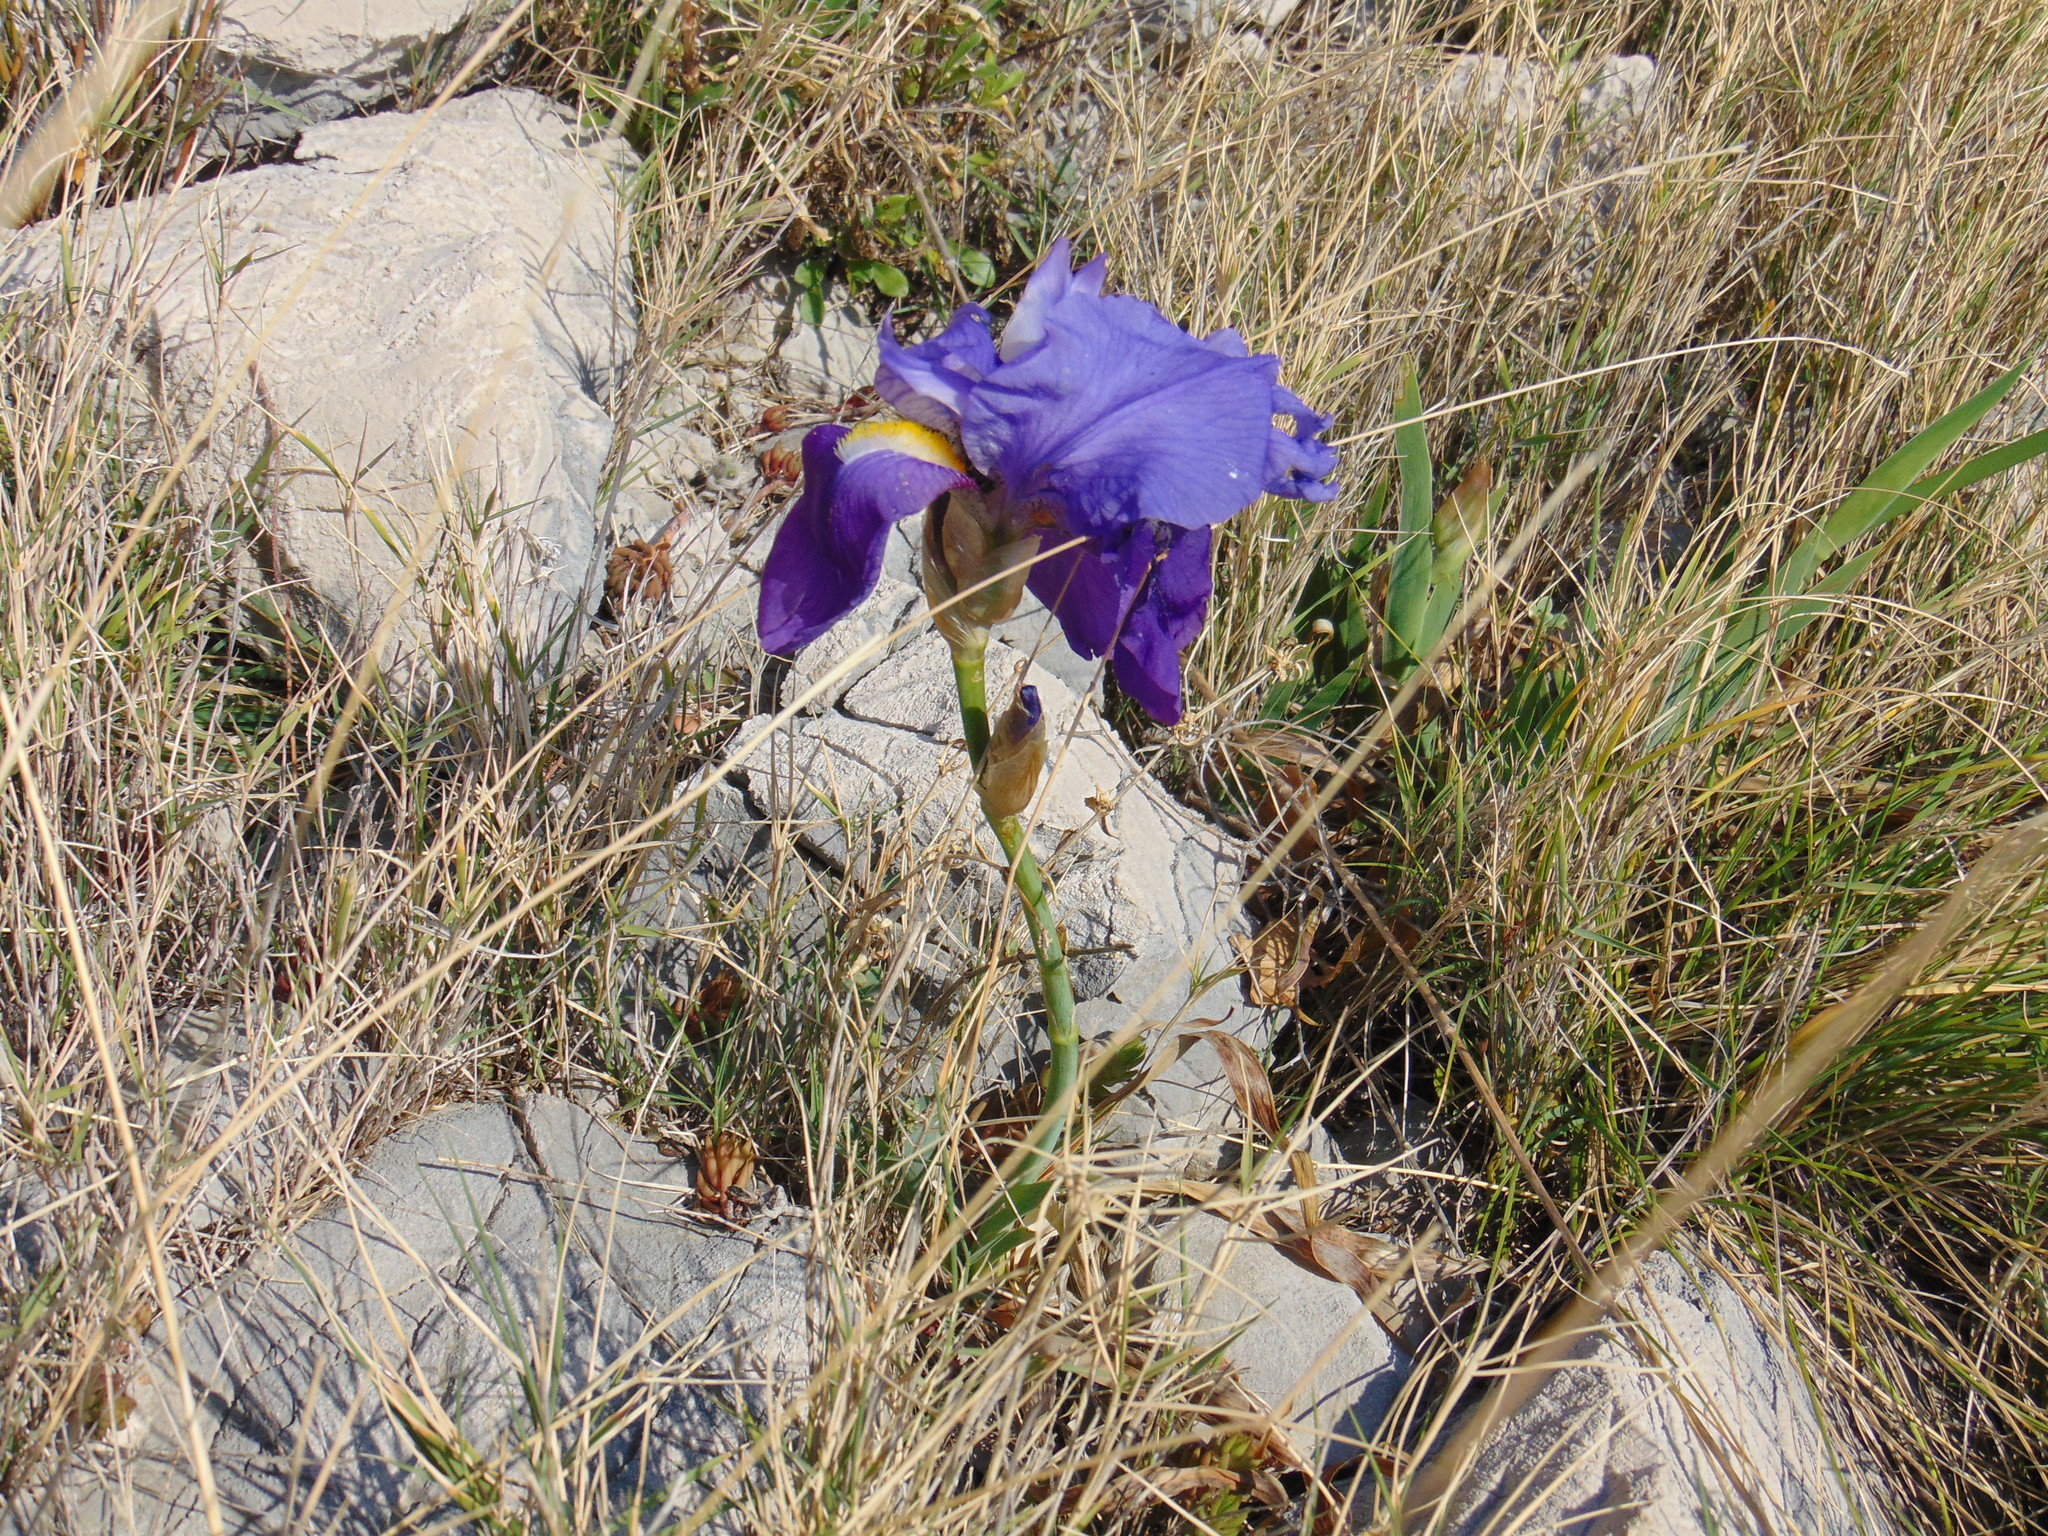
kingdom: Plantae
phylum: Tracheophyta
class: Liliopsida
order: Asparagales
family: Iridaceae
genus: Iris
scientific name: Iris pallida
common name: Sweet iris
